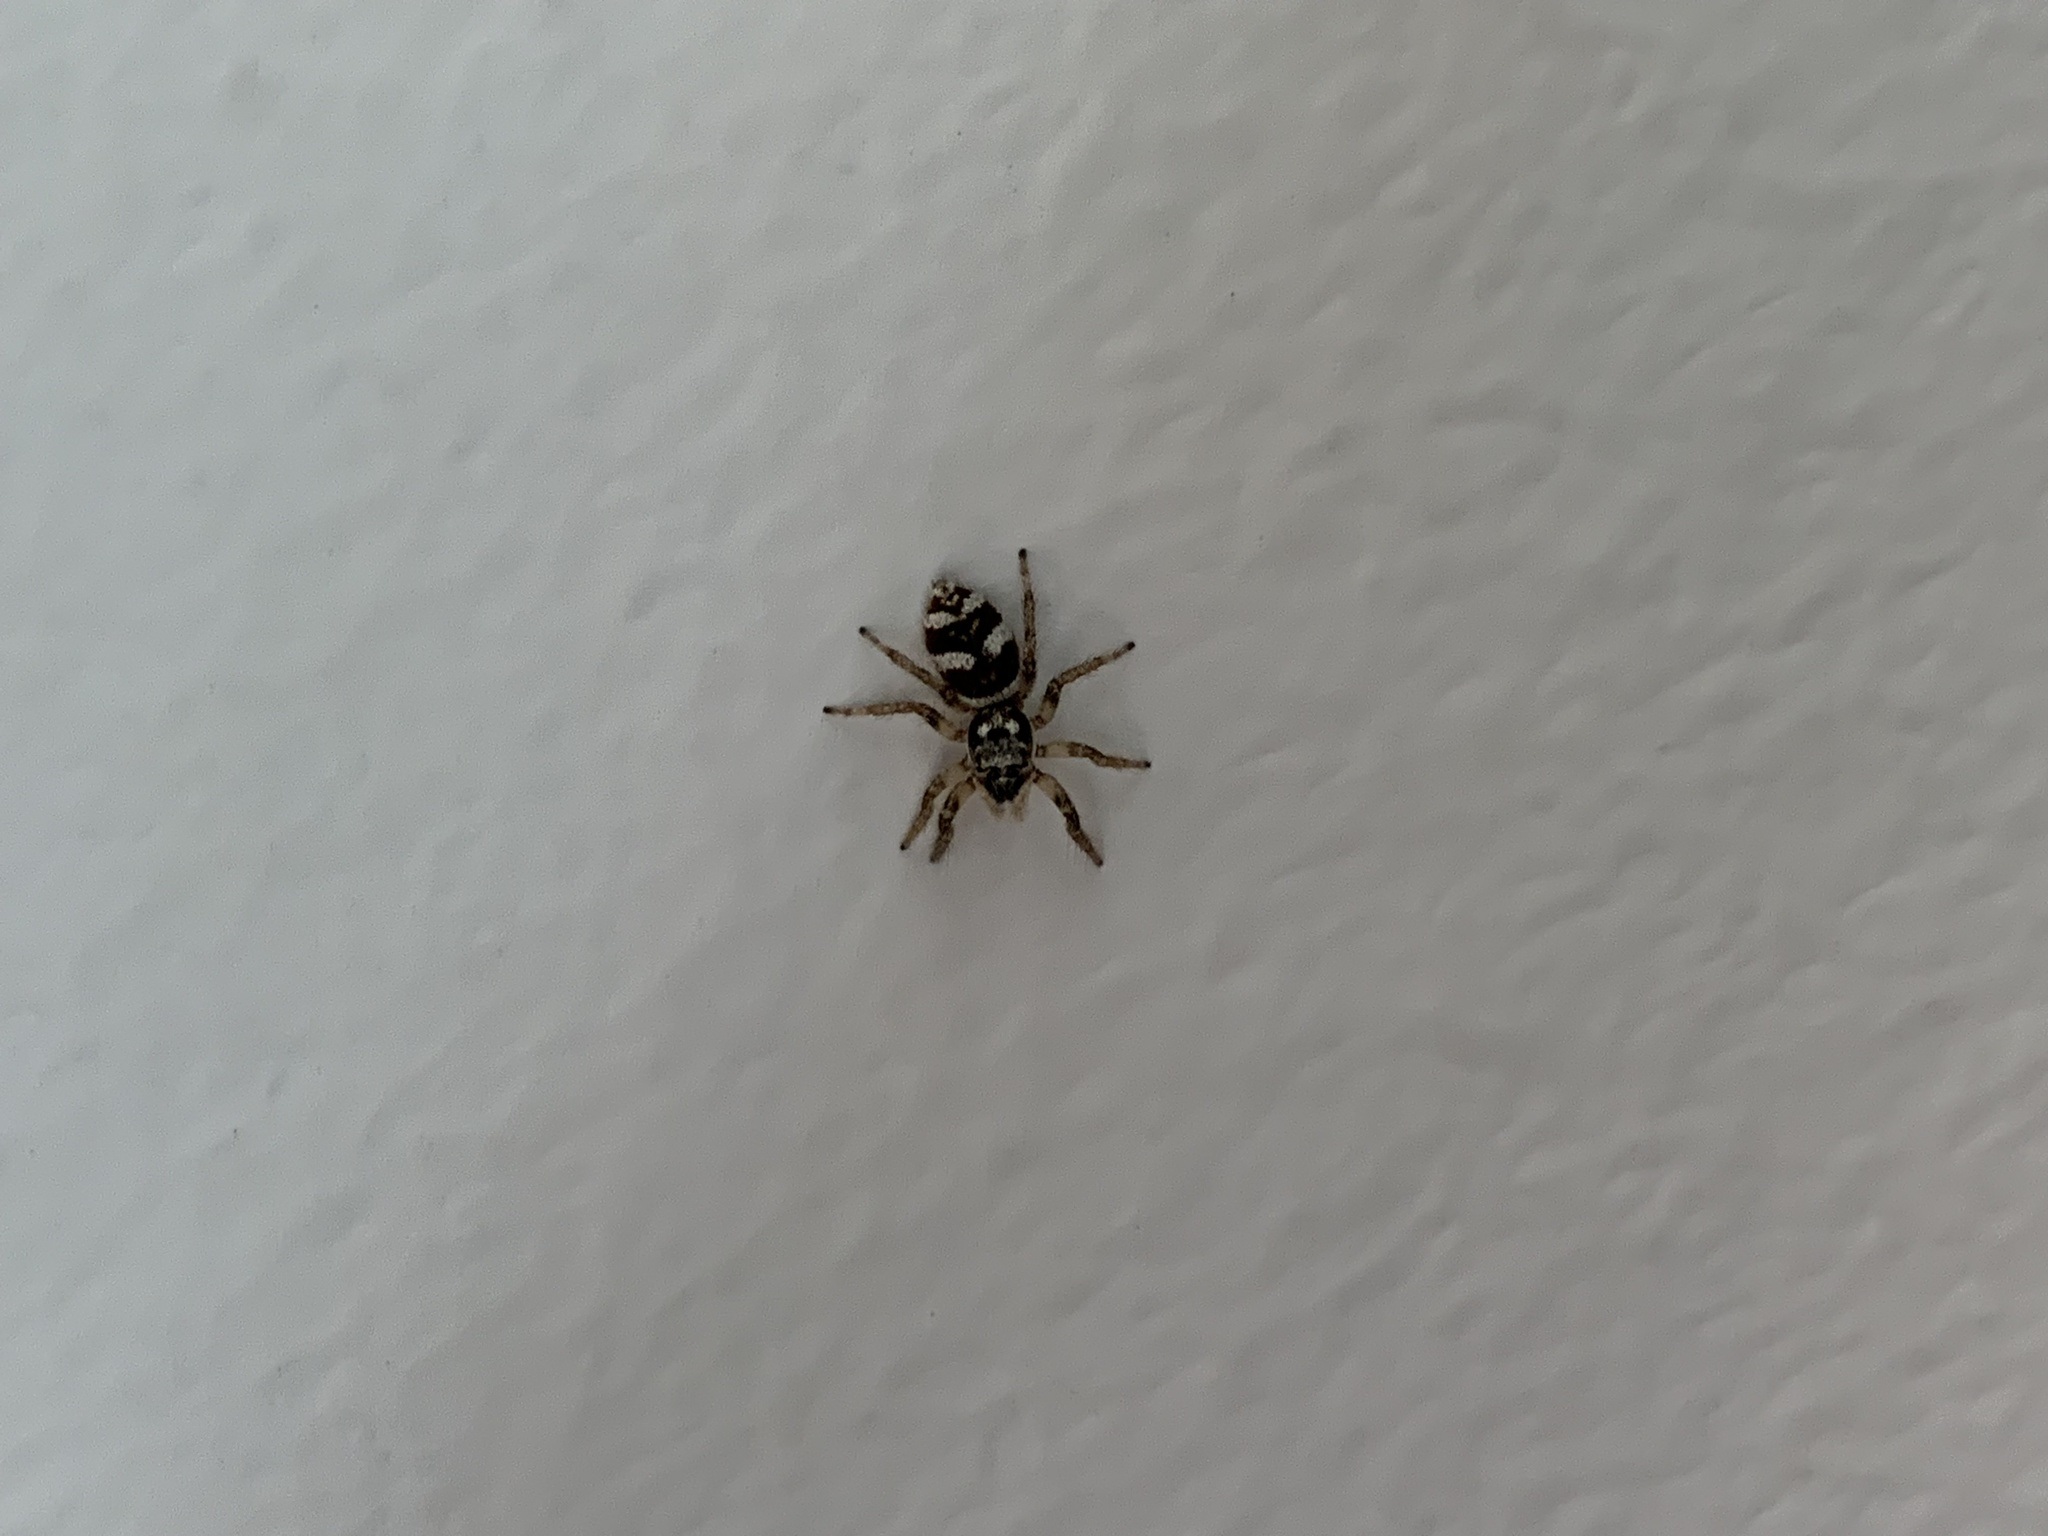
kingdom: Animalia
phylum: Arthropoda
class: Arachnida
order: Araneae
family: Salticidae
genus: Salticus
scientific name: Salticus scenicus
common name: Zebra jumper
